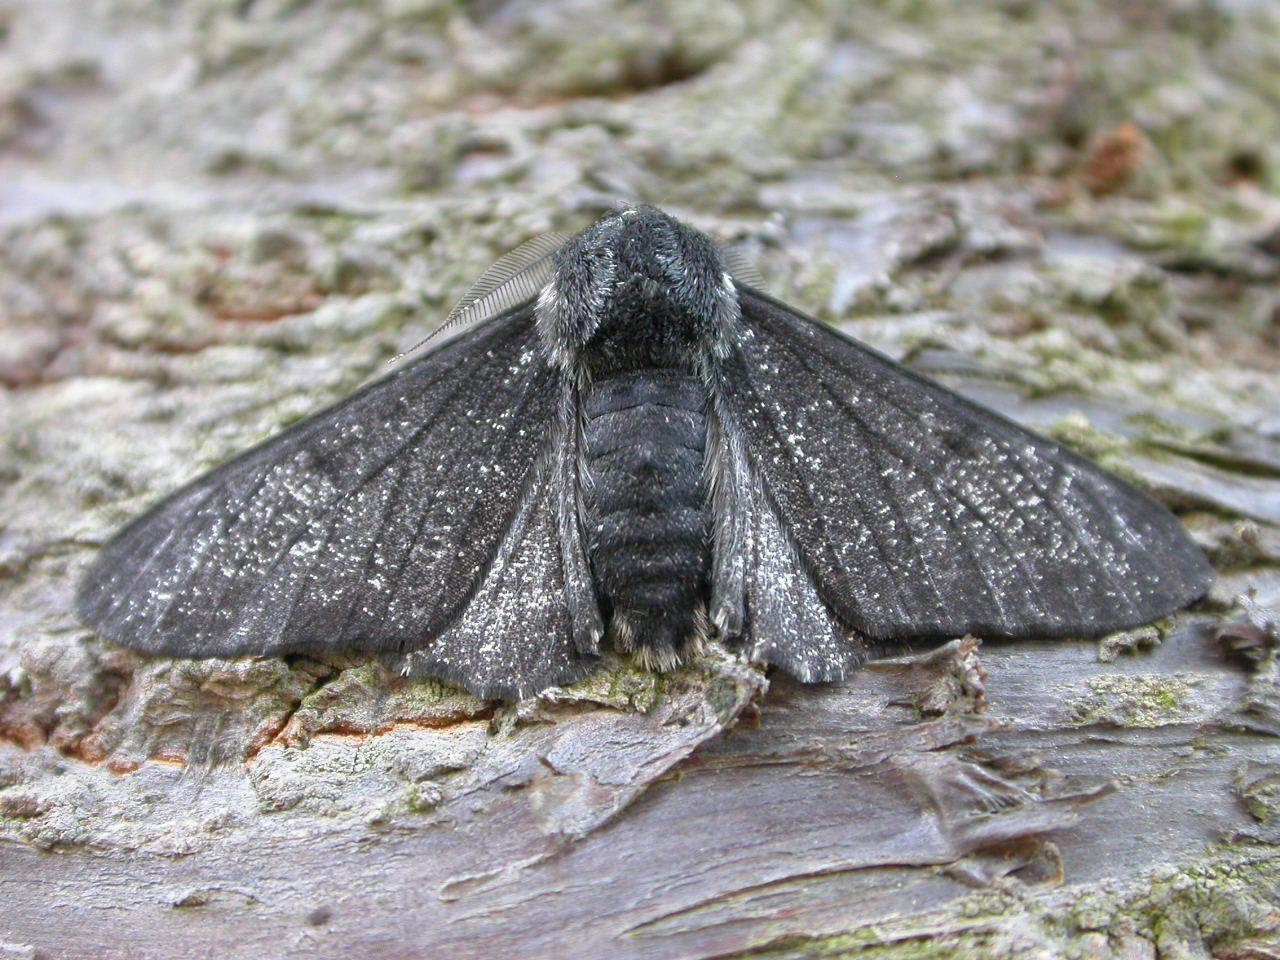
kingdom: Animalia
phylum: Arthropoda
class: Insecta
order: Lepidoptera
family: Geometridae
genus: Biston
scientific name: Biston betularia
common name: Peppered moth
